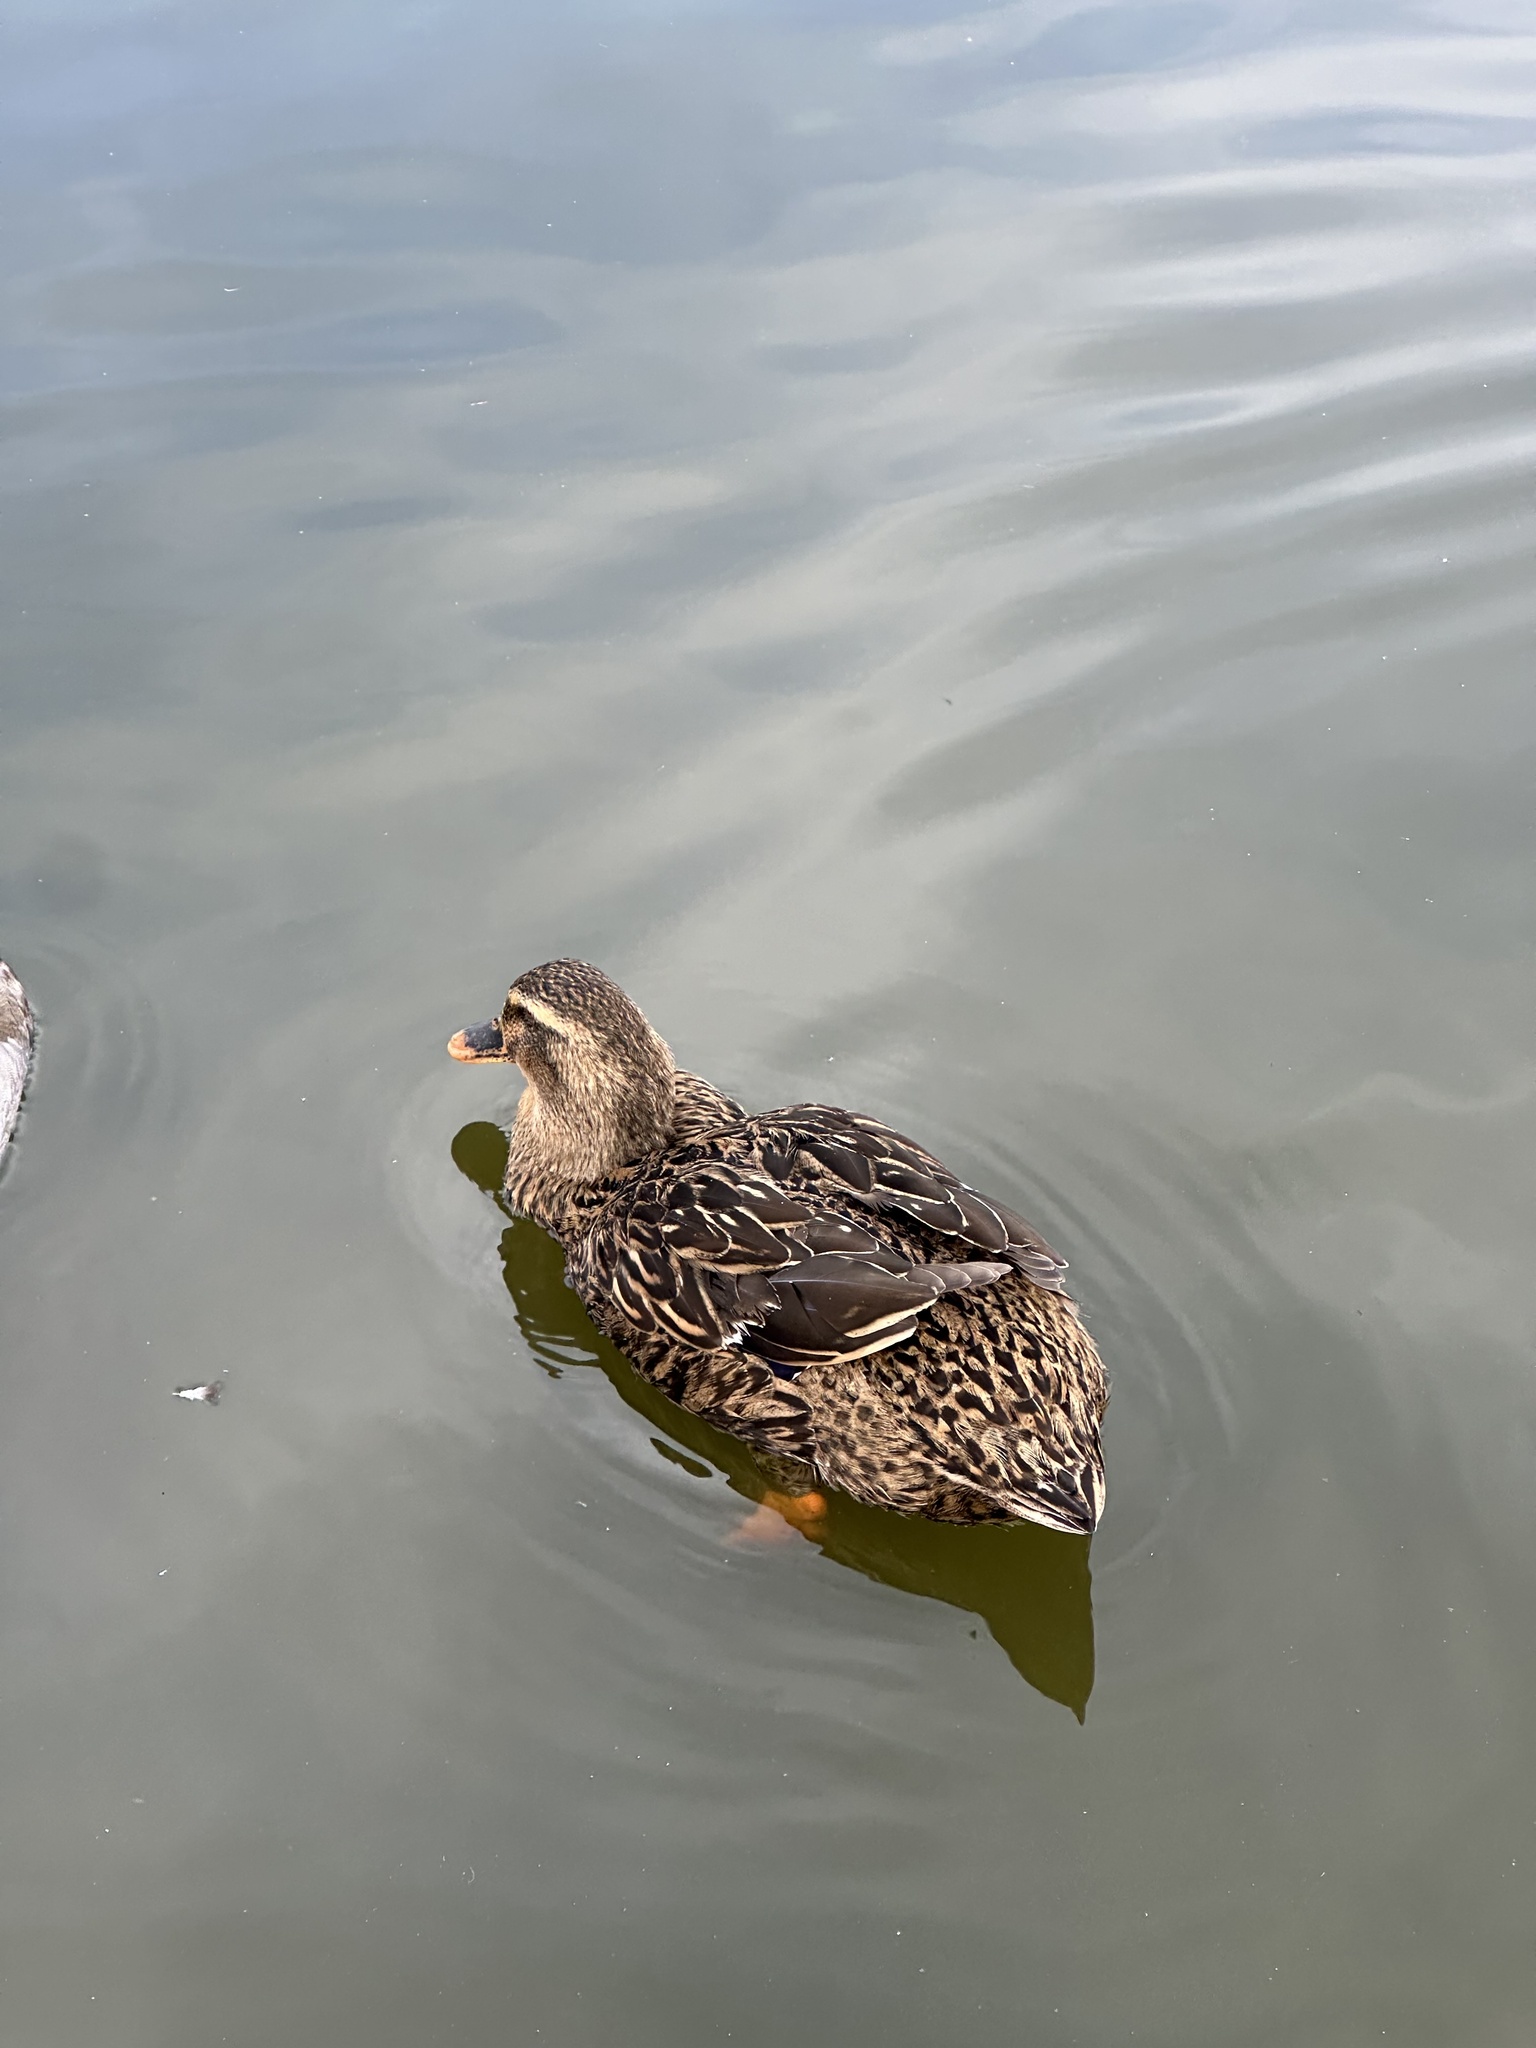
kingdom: Animalia
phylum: Chordata
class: Aves
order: Anseriformes
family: Anatidae
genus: Anas
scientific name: Anas platyrhynchos
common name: Mallard
